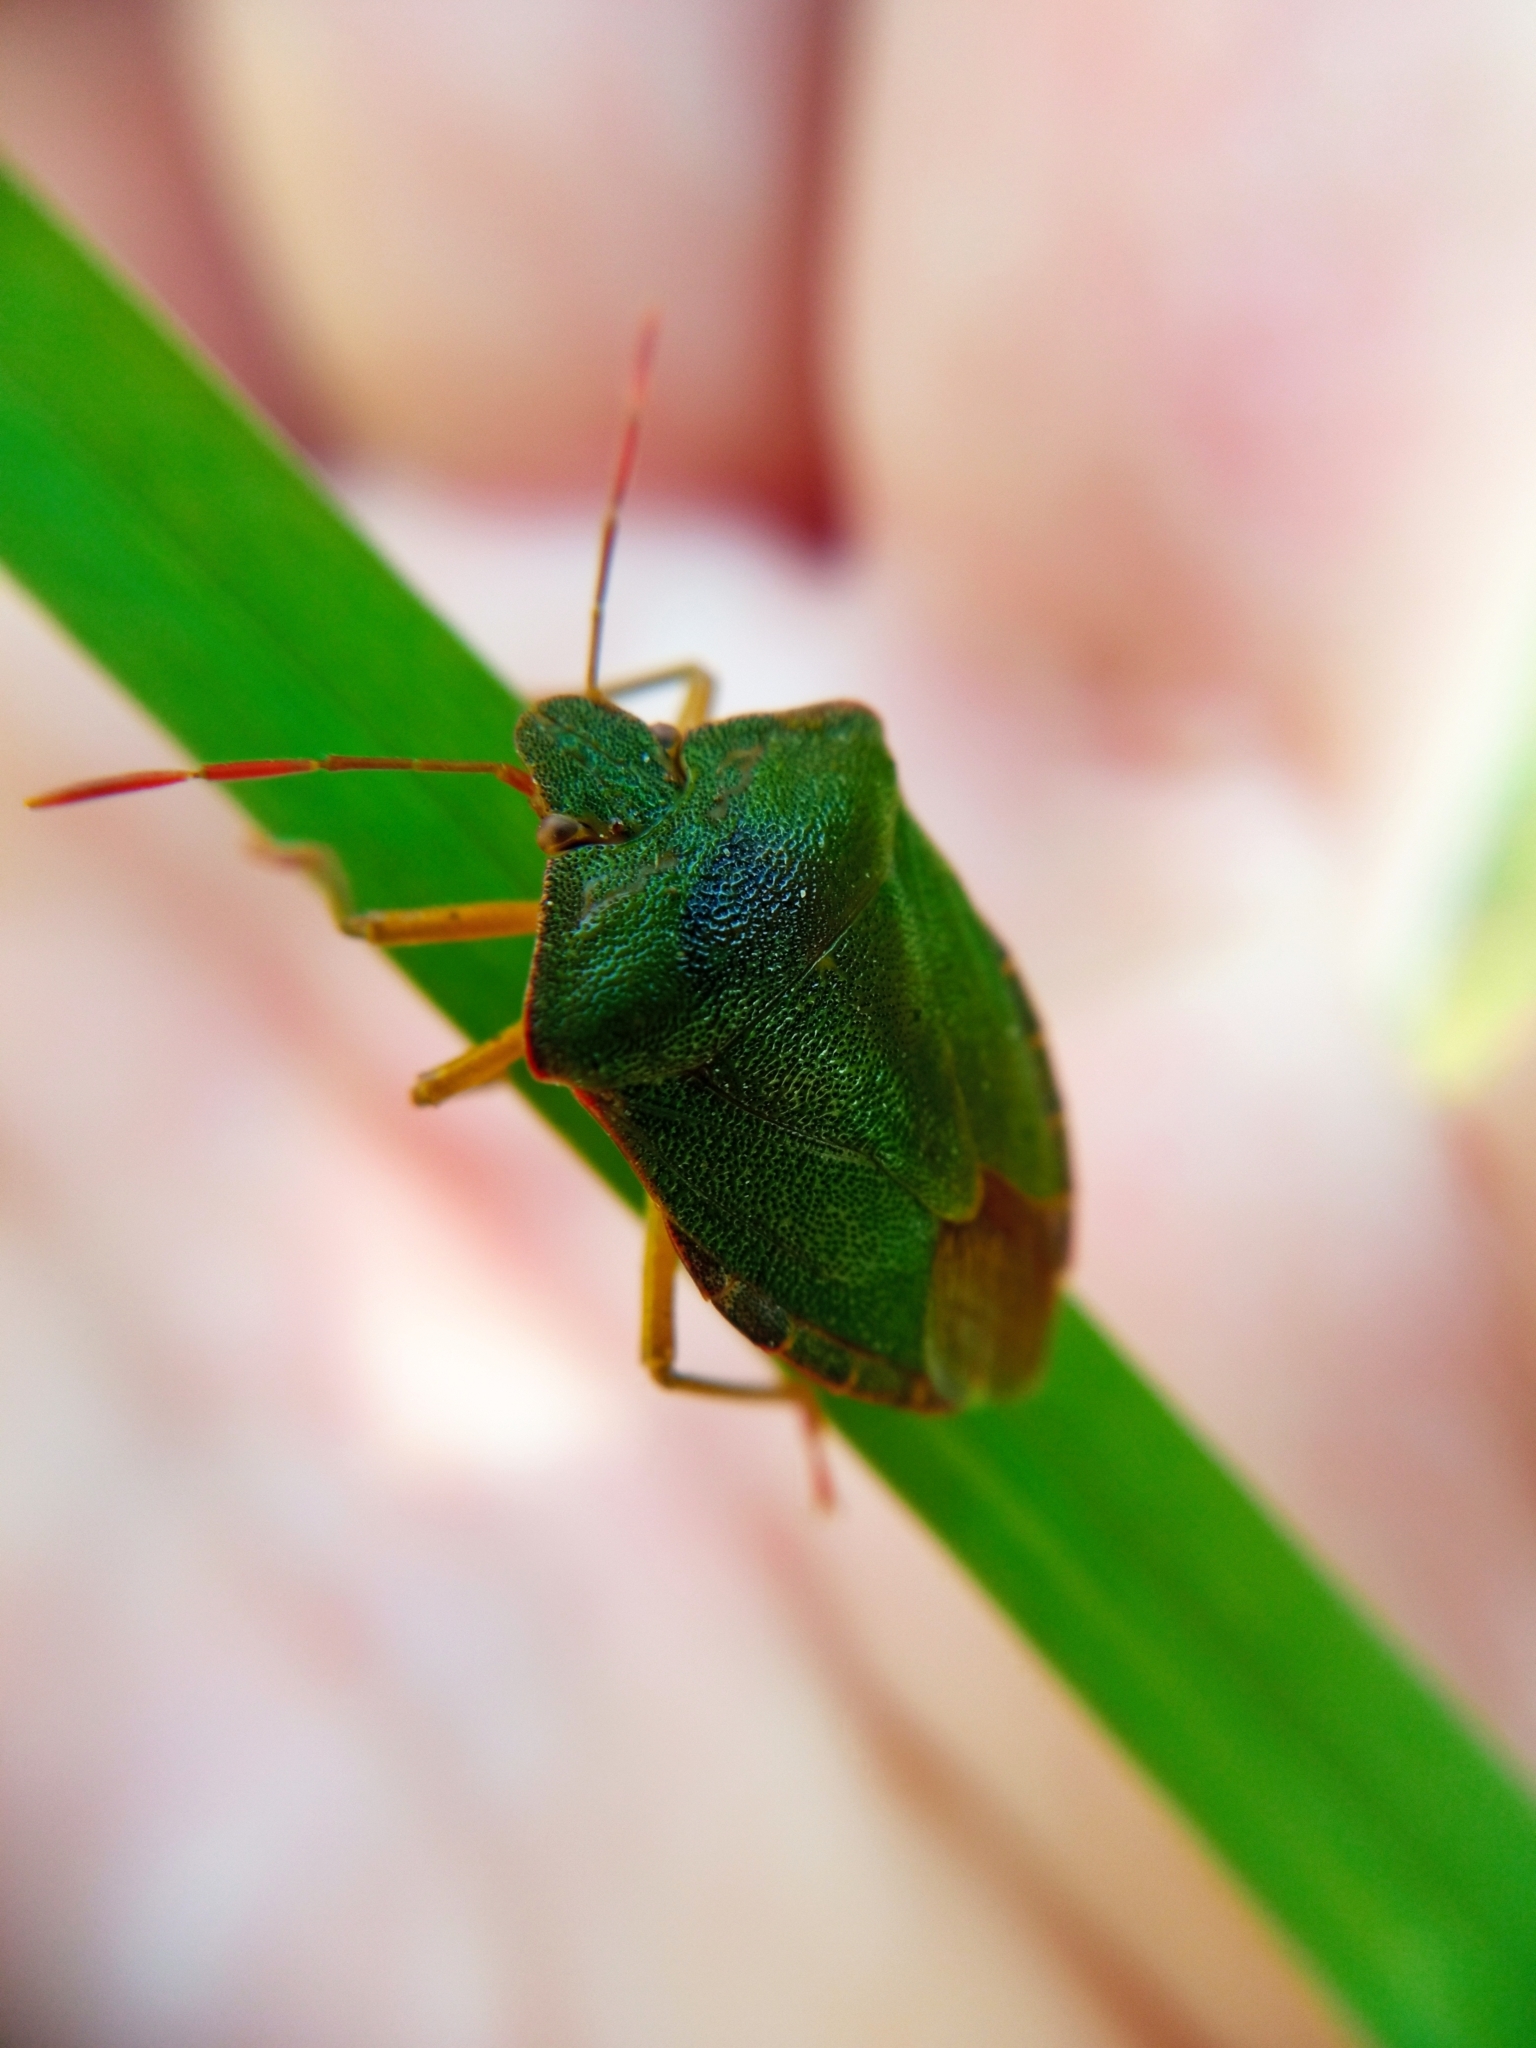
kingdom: Animalia
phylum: Arthropoda
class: Insecta
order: Hemiptera
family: Pentatomidae
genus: Palomena
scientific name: Palomena prasina
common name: Green shieldbug
